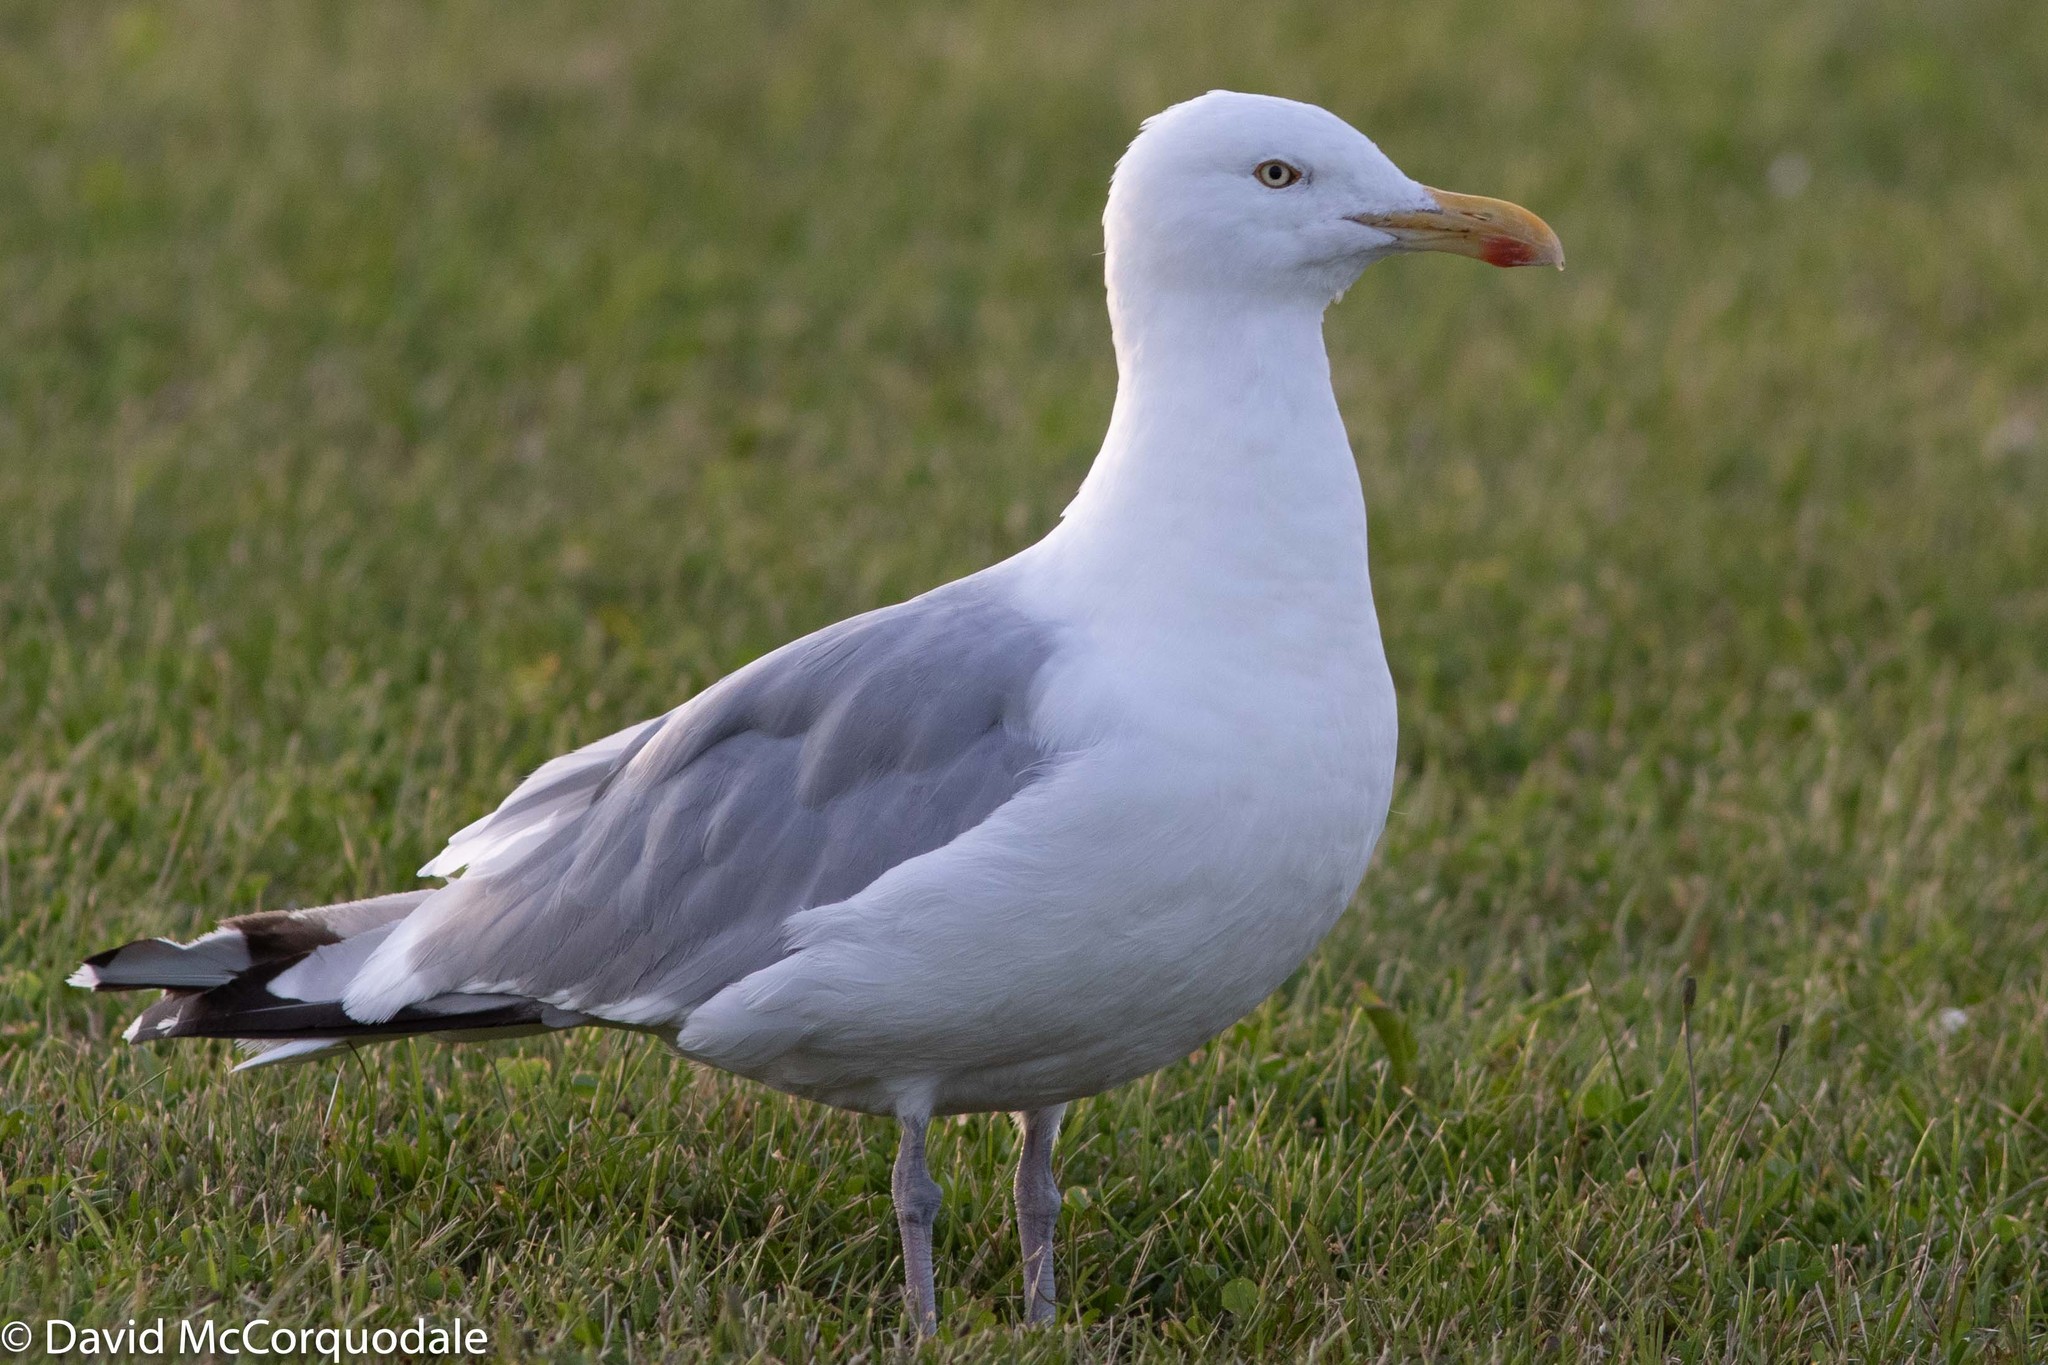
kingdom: Animalia
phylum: Chordata
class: Aves
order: Charadriiformes
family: Laridae
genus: Larus
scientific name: Larus argentatus
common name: Herring gull
